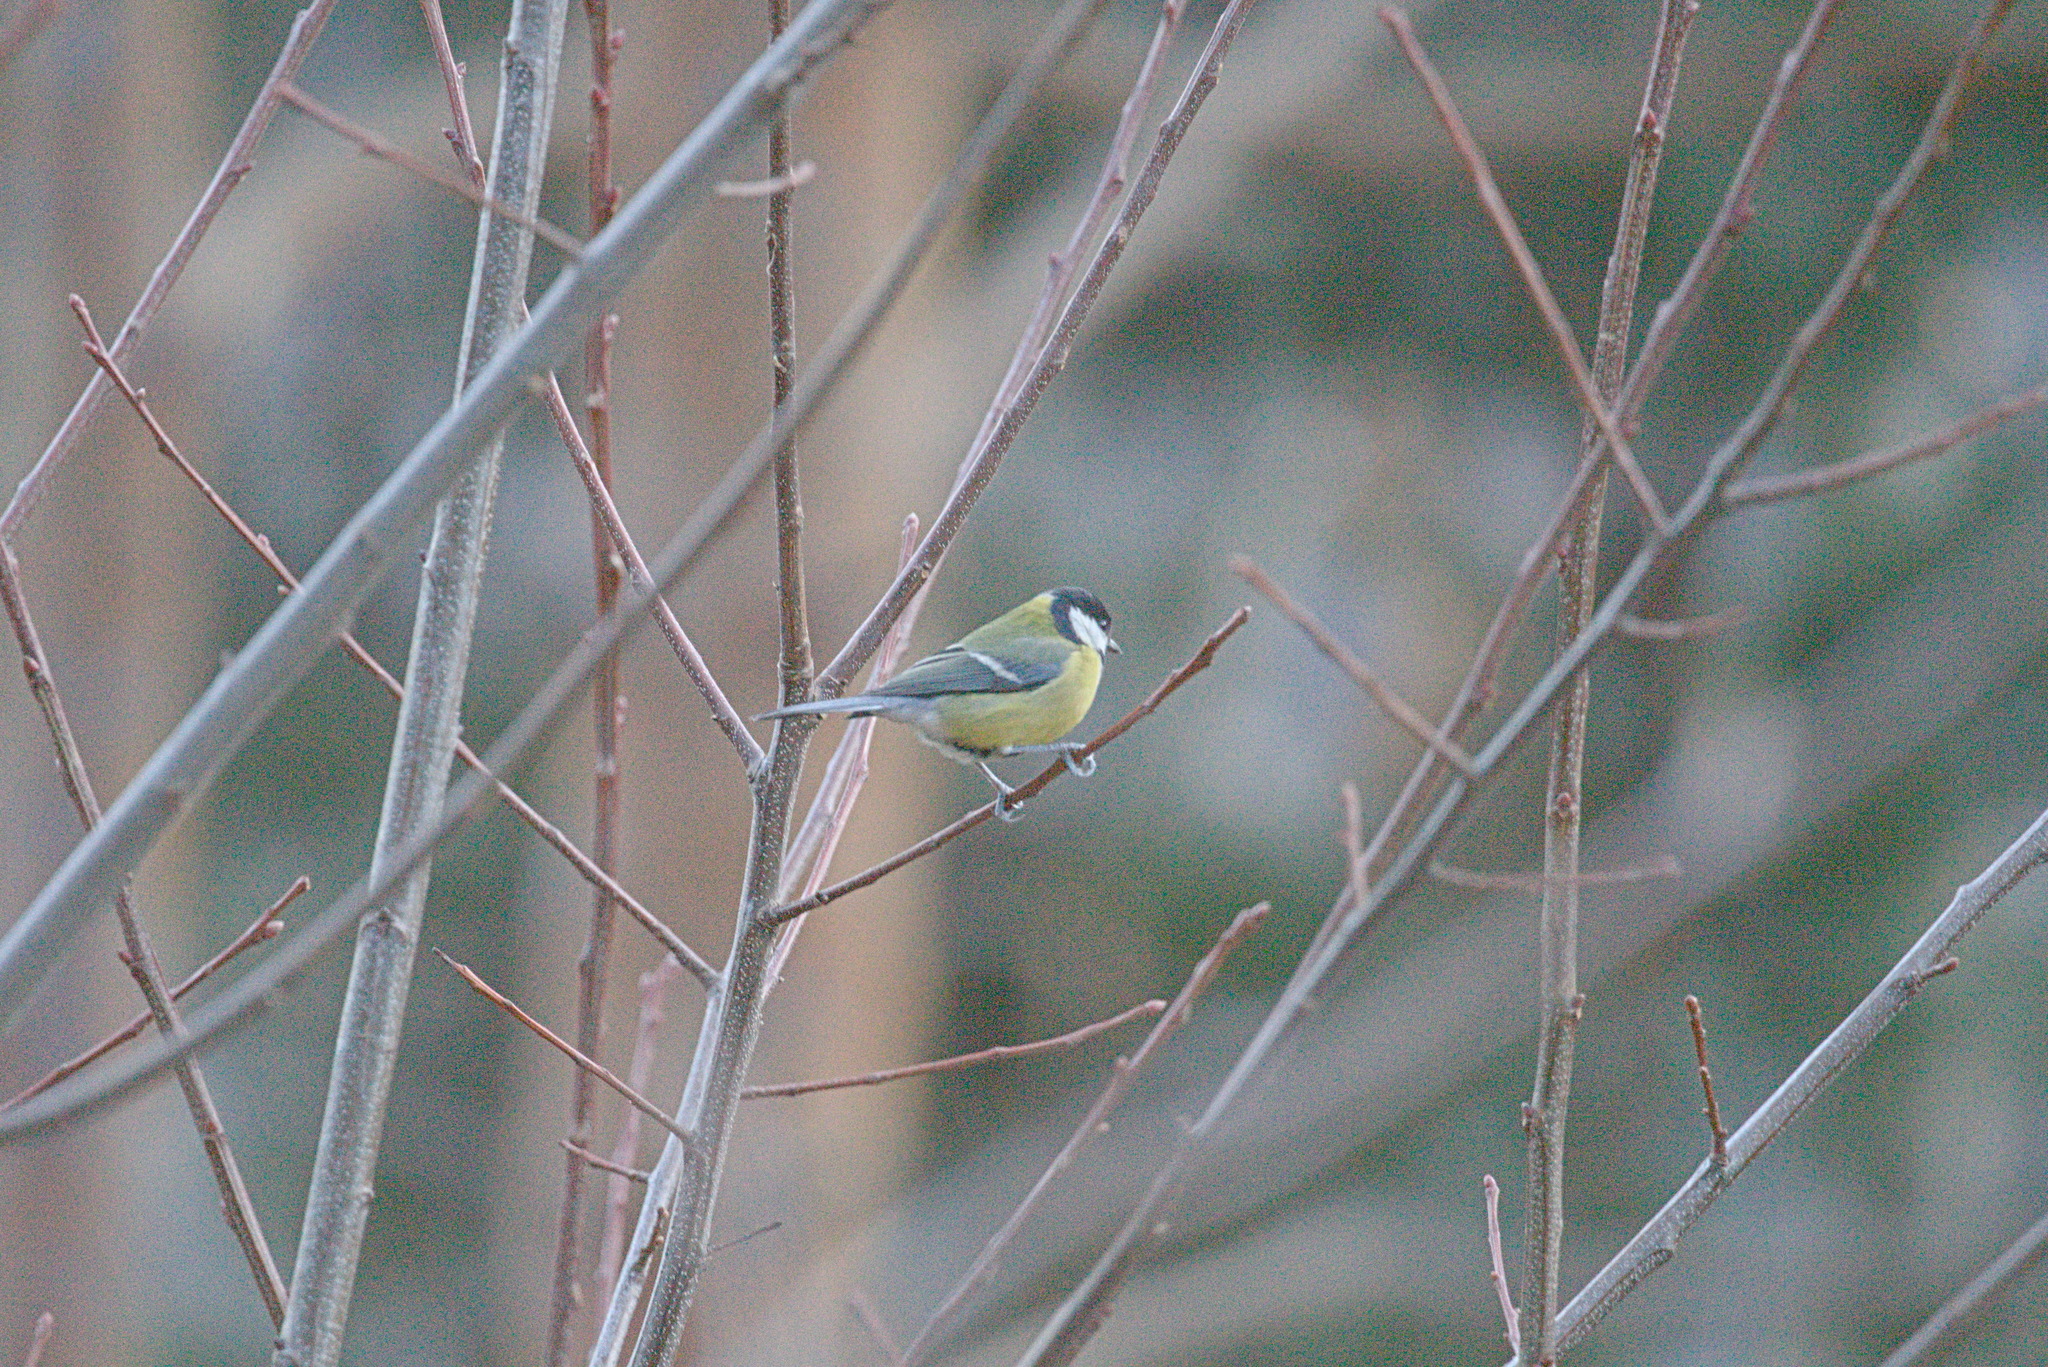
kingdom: Animalia
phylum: Chordata
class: Aves
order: Passeriformes
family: Paridae
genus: Parus
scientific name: Parus major
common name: Great tit
